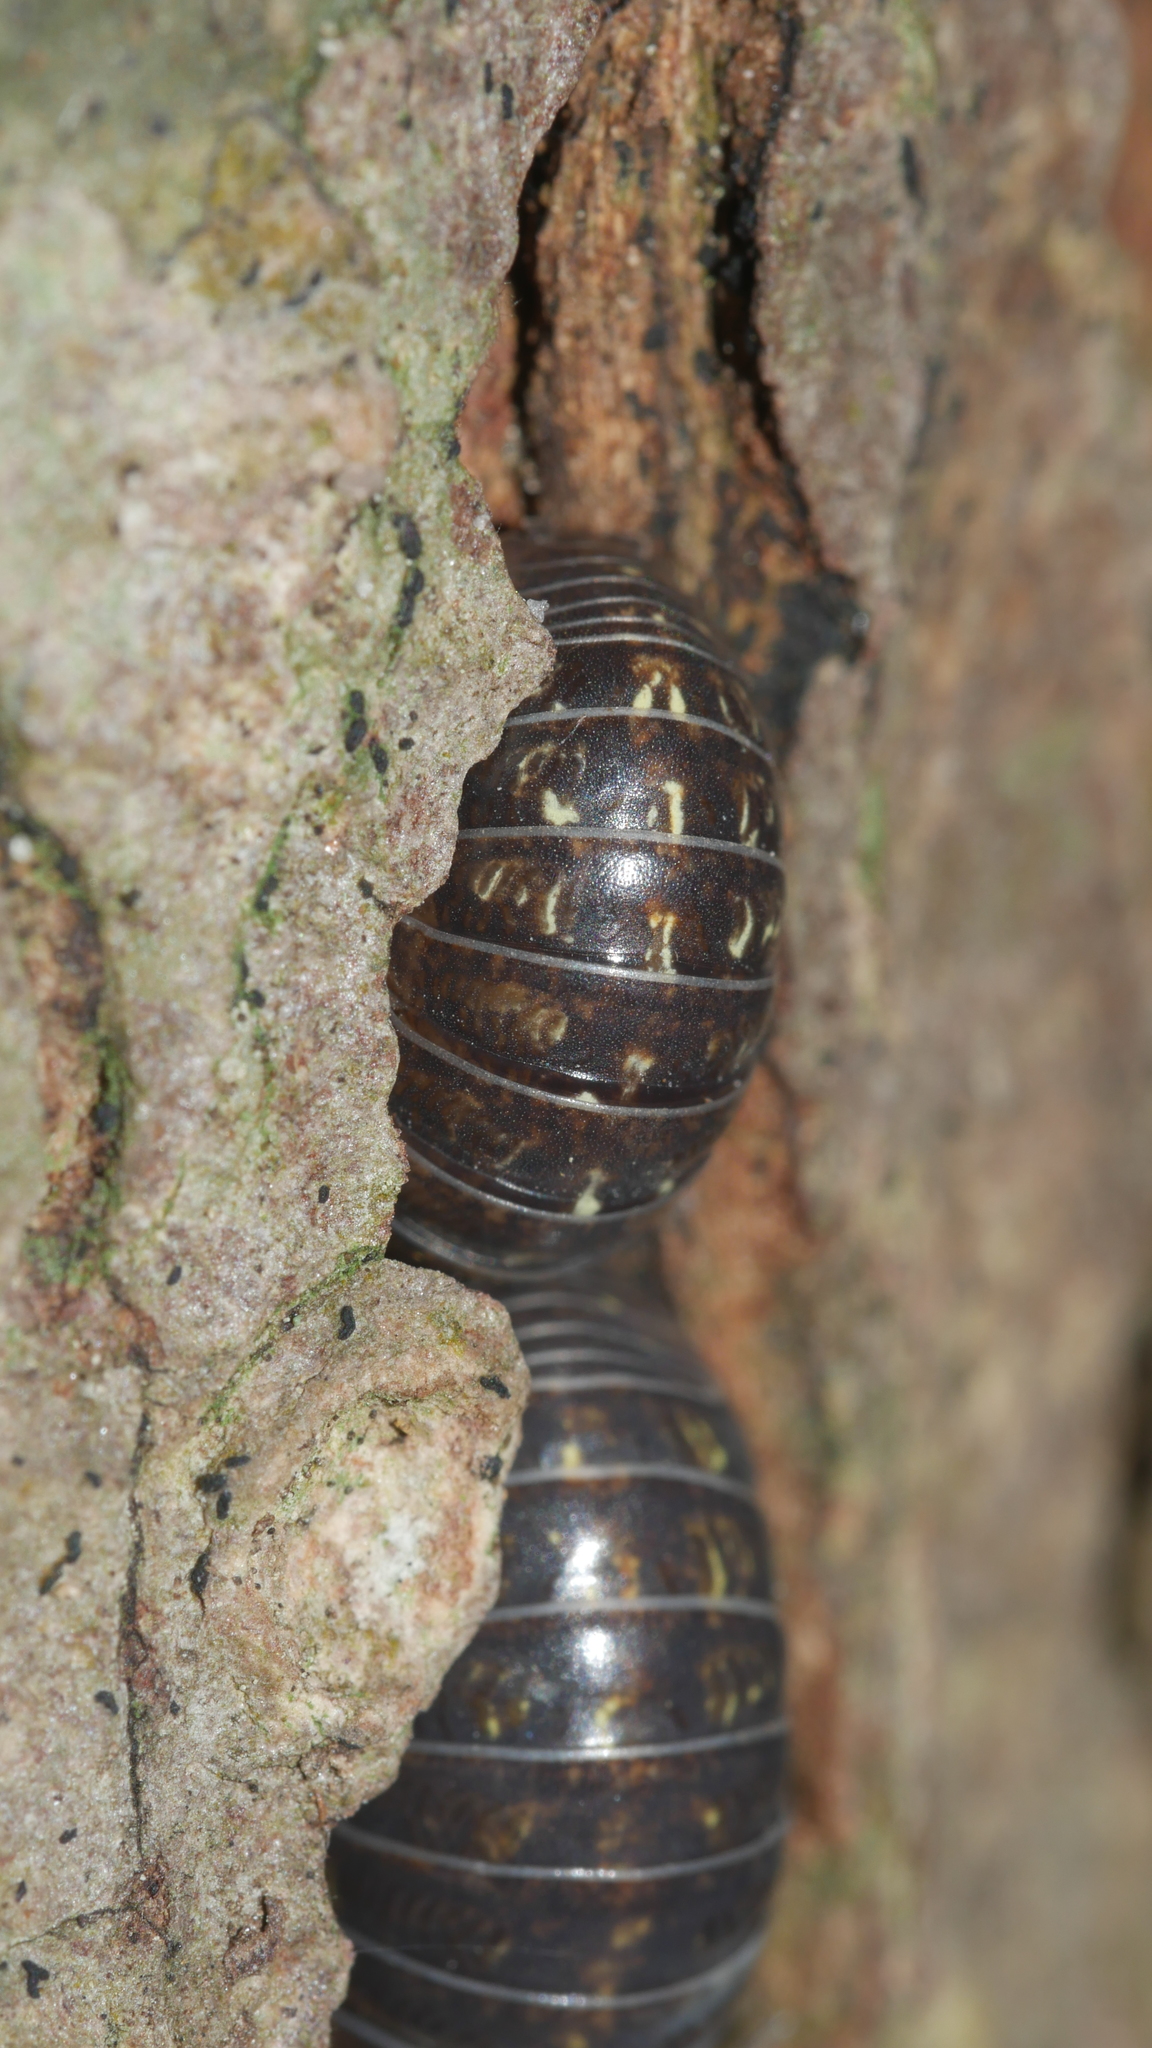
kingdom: Animalia
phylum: Arthropoda
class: Malacostraca
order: Isopoda
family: Armadillidiidae
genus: Armadillidium
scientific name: Armadillidium vulgare
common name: Common pill woodlouse
